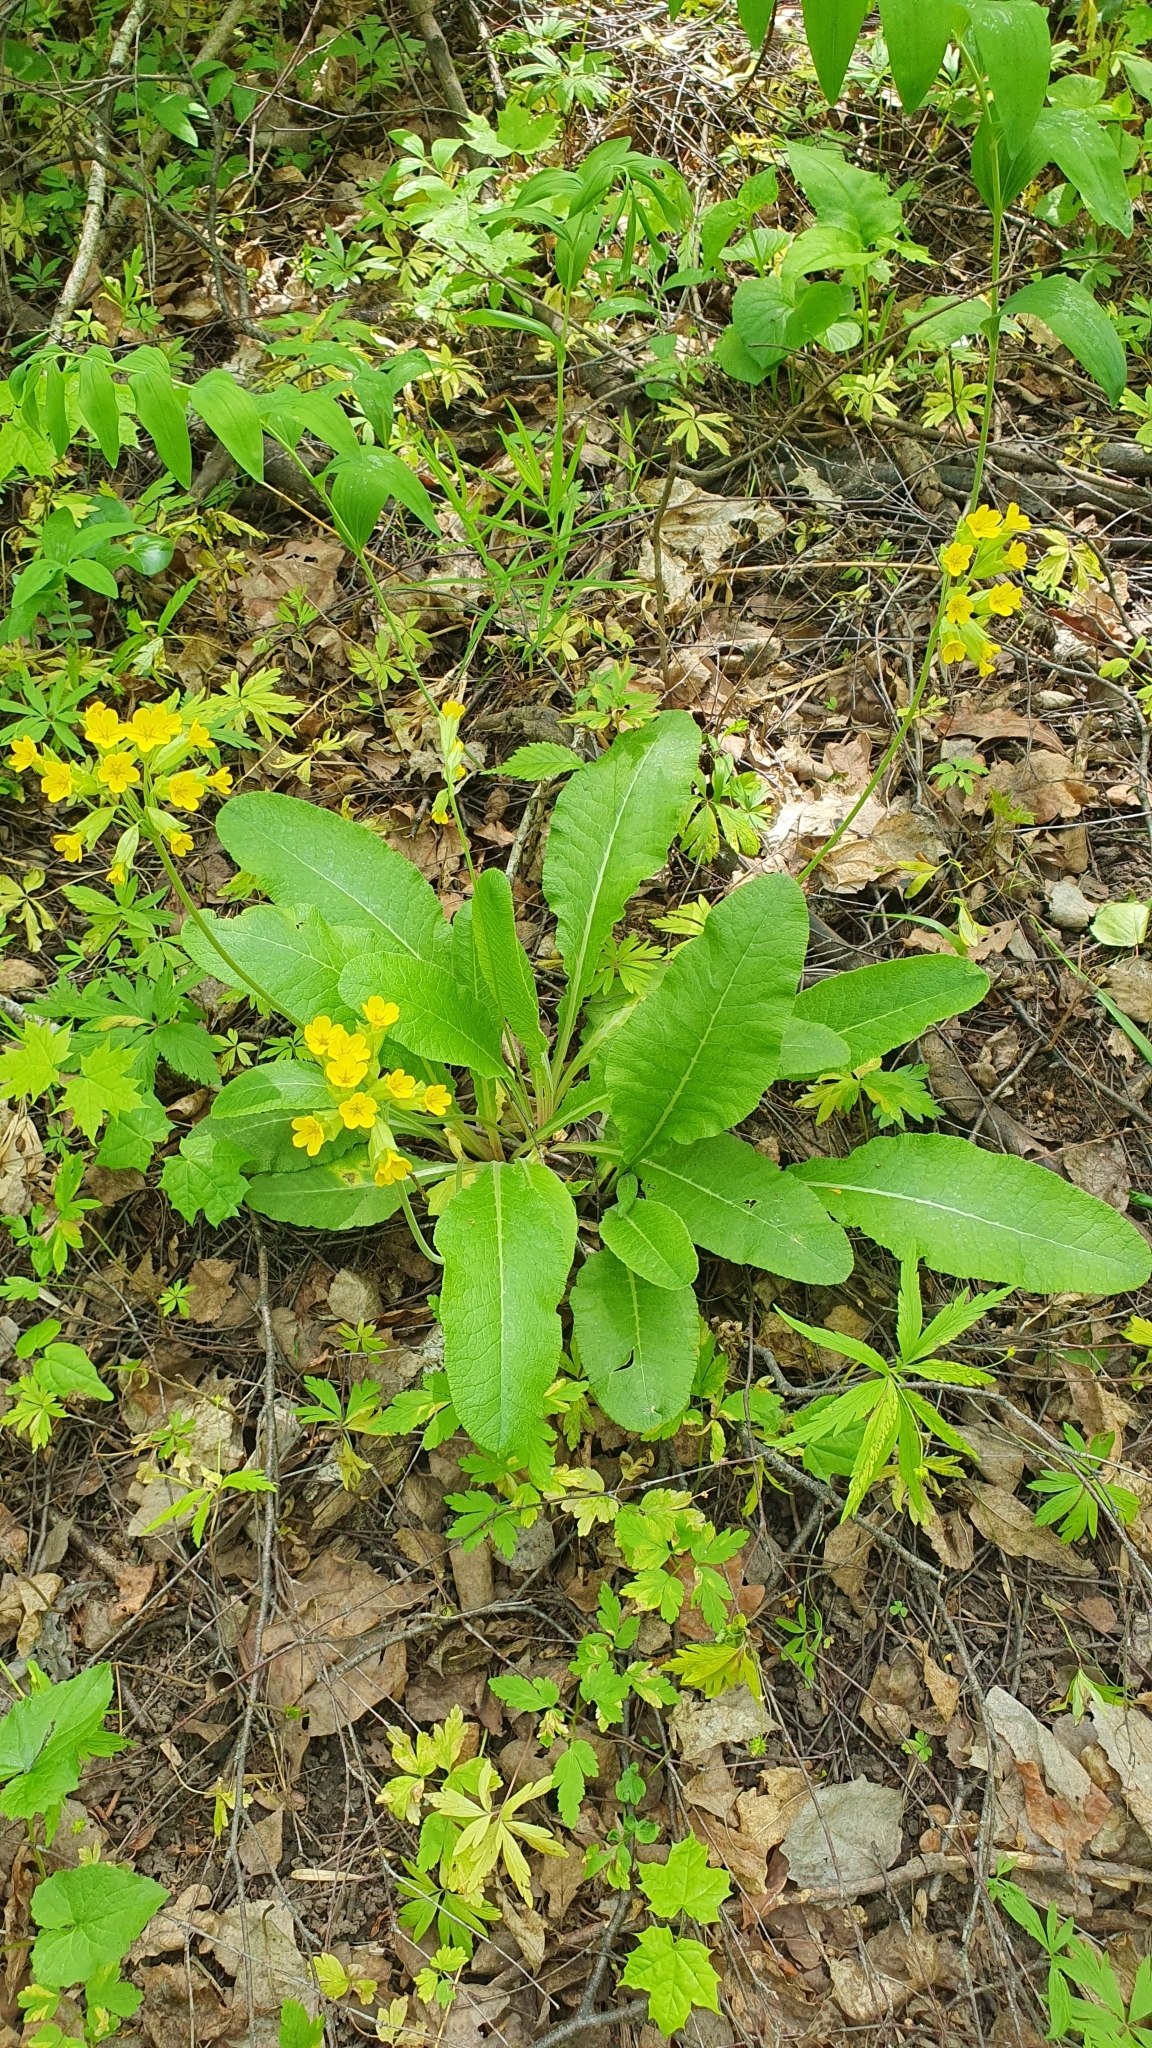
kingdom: Plantae
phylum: Tracheophyta
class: Magnoliopsida
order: Ericales
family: Primulaceae
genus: Primula
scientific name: Primula veris
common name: Cowslip
